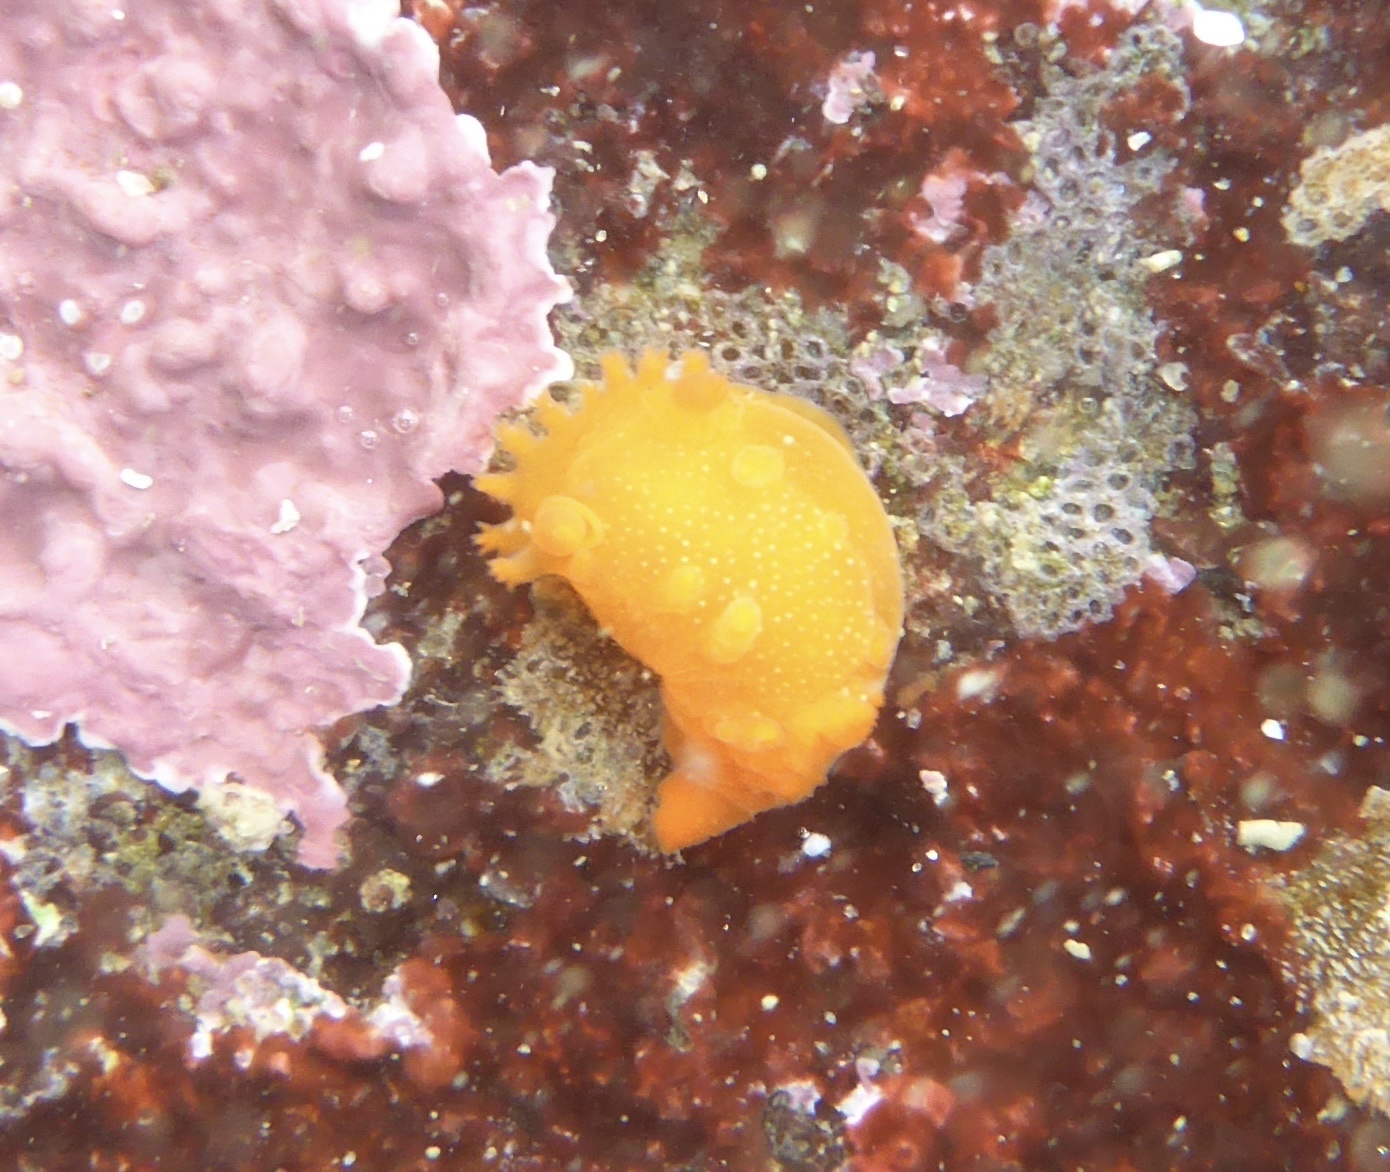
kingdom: Animalia
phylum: Mollusca
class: Gastropoda
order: Nudibranchia
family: Polyceridae
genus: Triopha
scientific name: Triopha maculata
